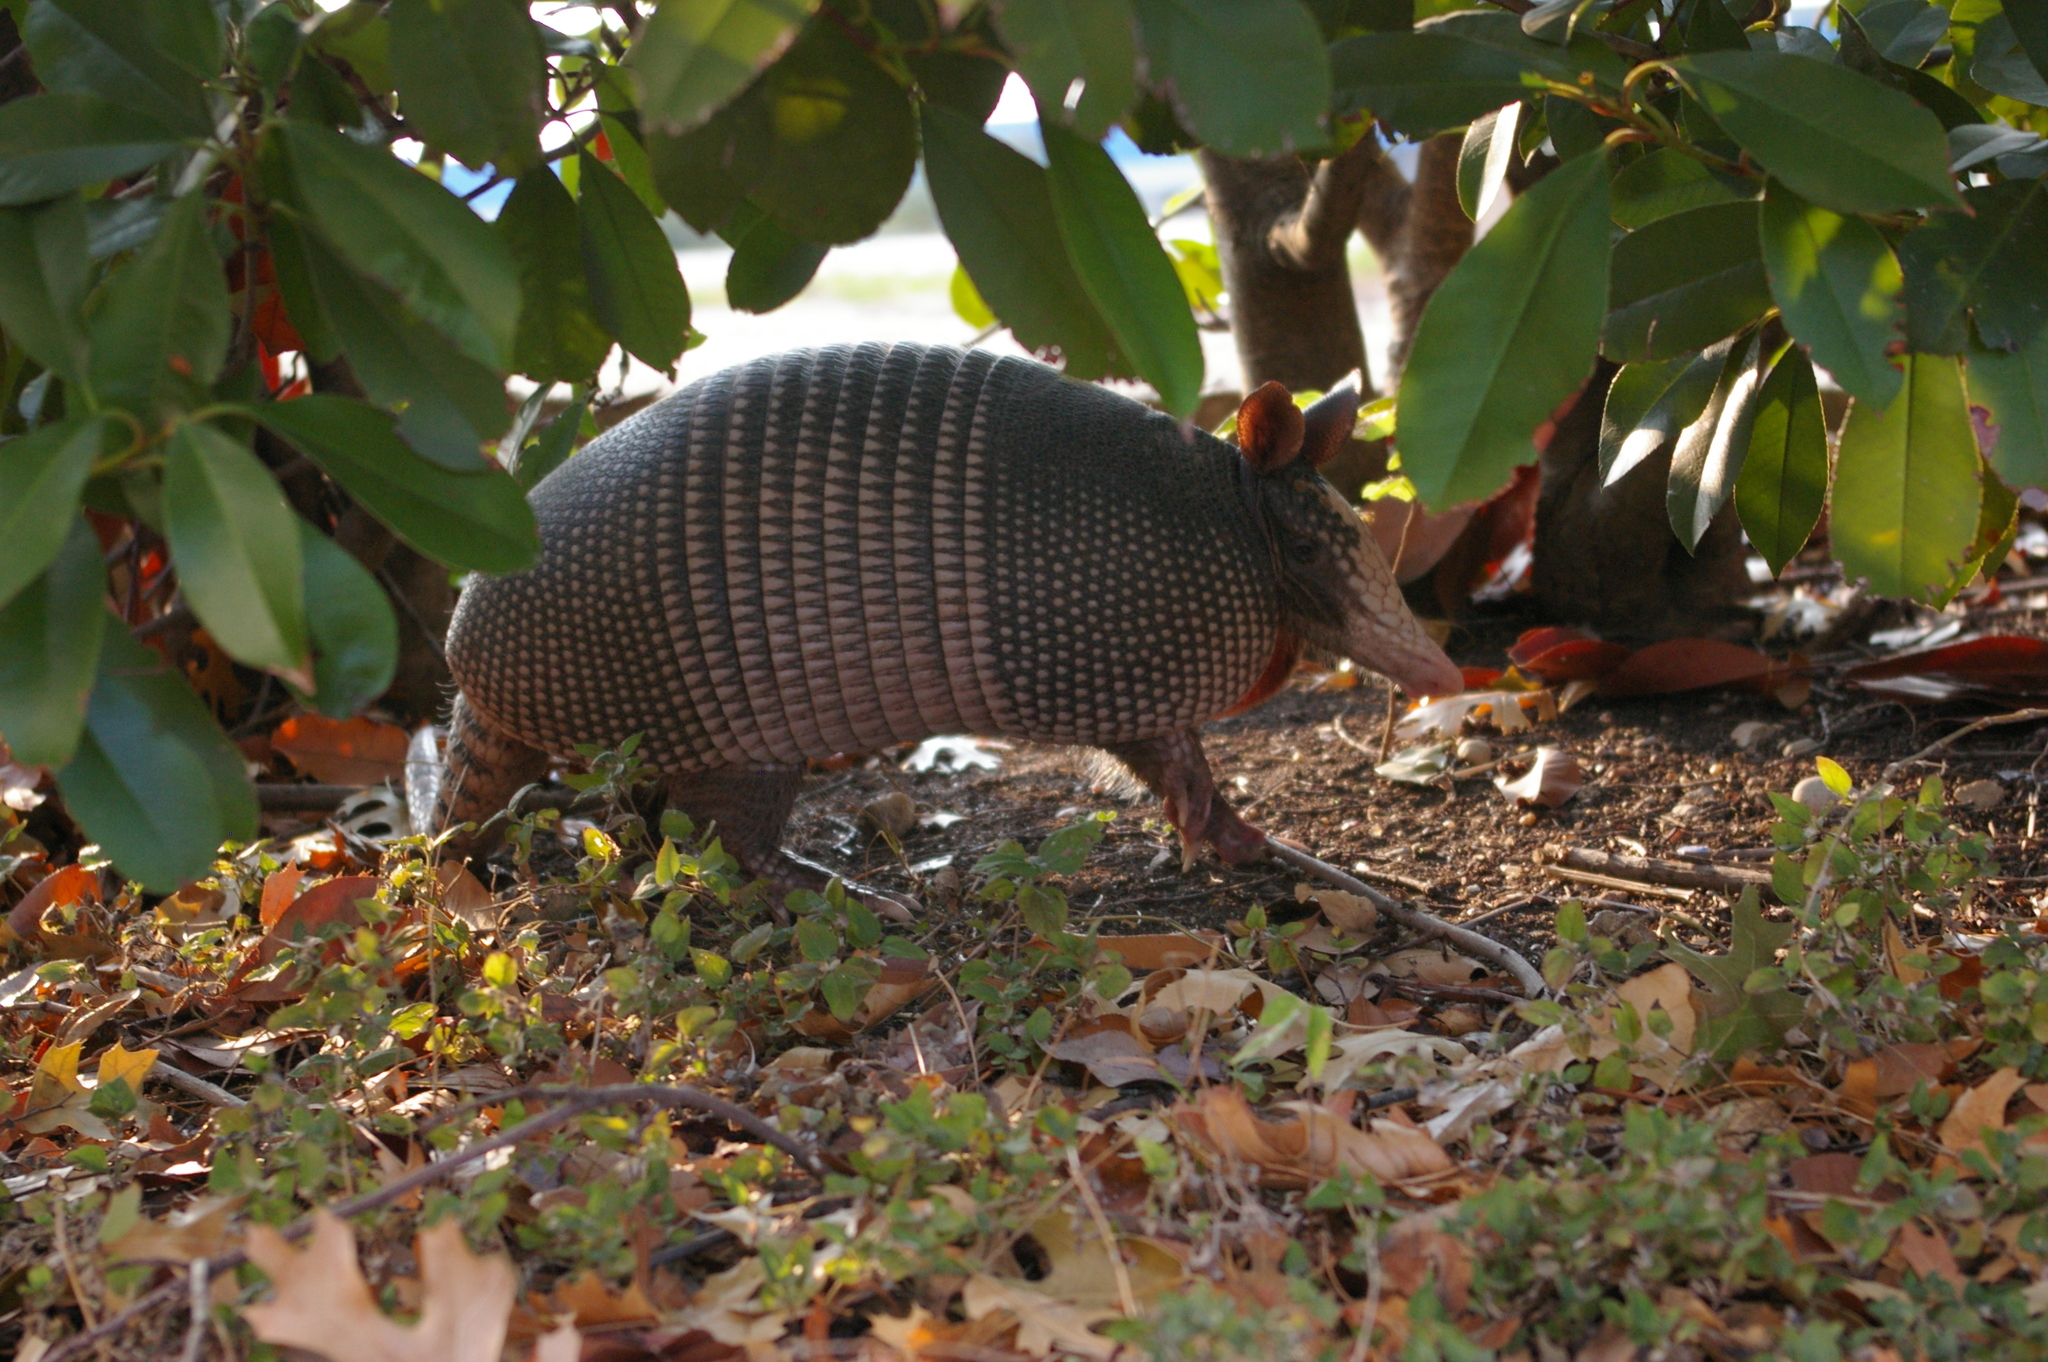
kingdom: Animalia
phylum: Chordata
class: Mammalia
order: Cingulata
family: Dasypodidae
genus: Dasypus
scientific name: Dasypus novemcinctus
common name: Nine-banded armadillo
